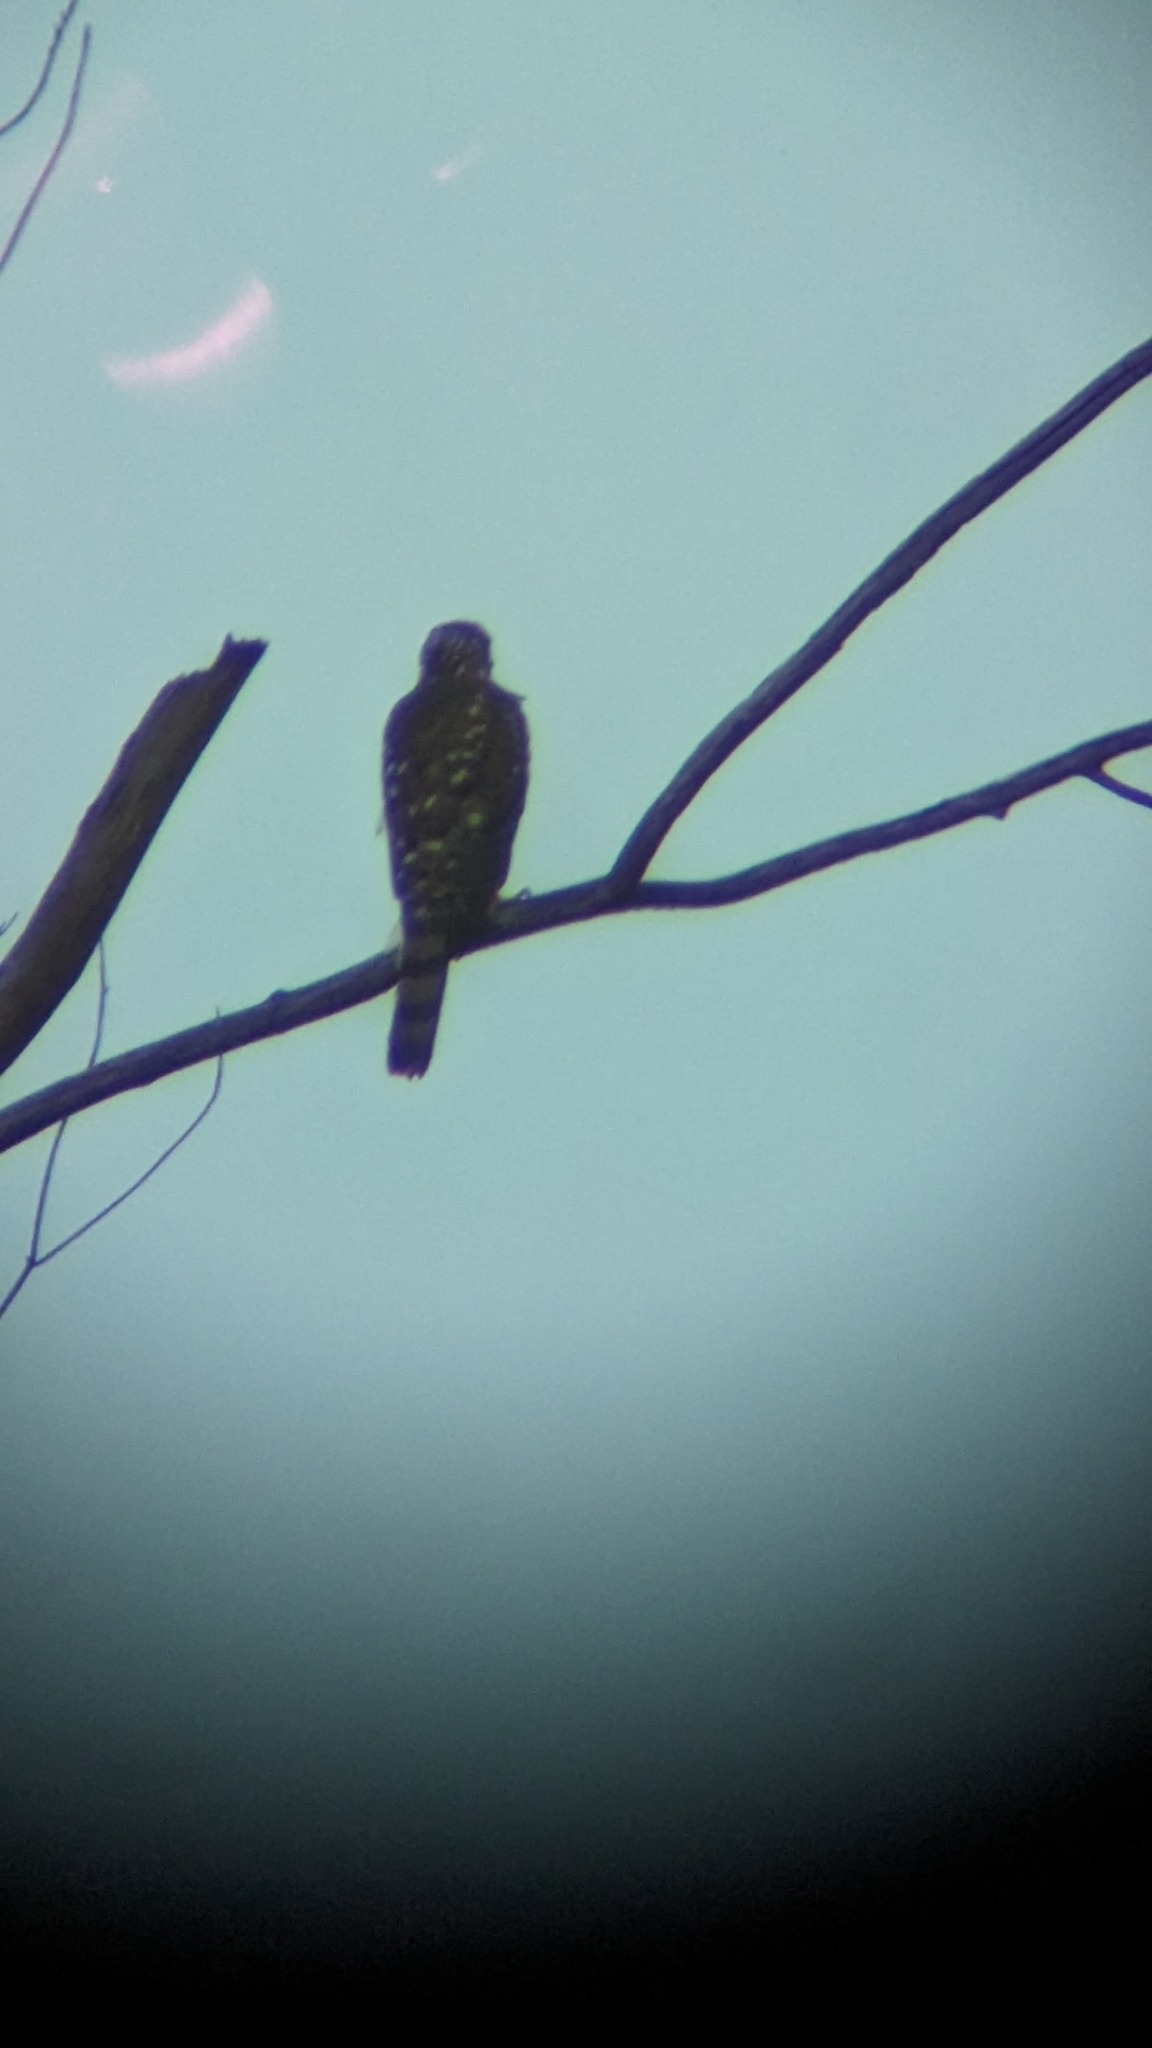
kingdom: Animalia
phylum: Chordata
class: Aves
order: Accipitriformes
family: Accipitridae
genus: Accipiter
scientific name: Accipiter cooperii
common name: Cooper's hawk
